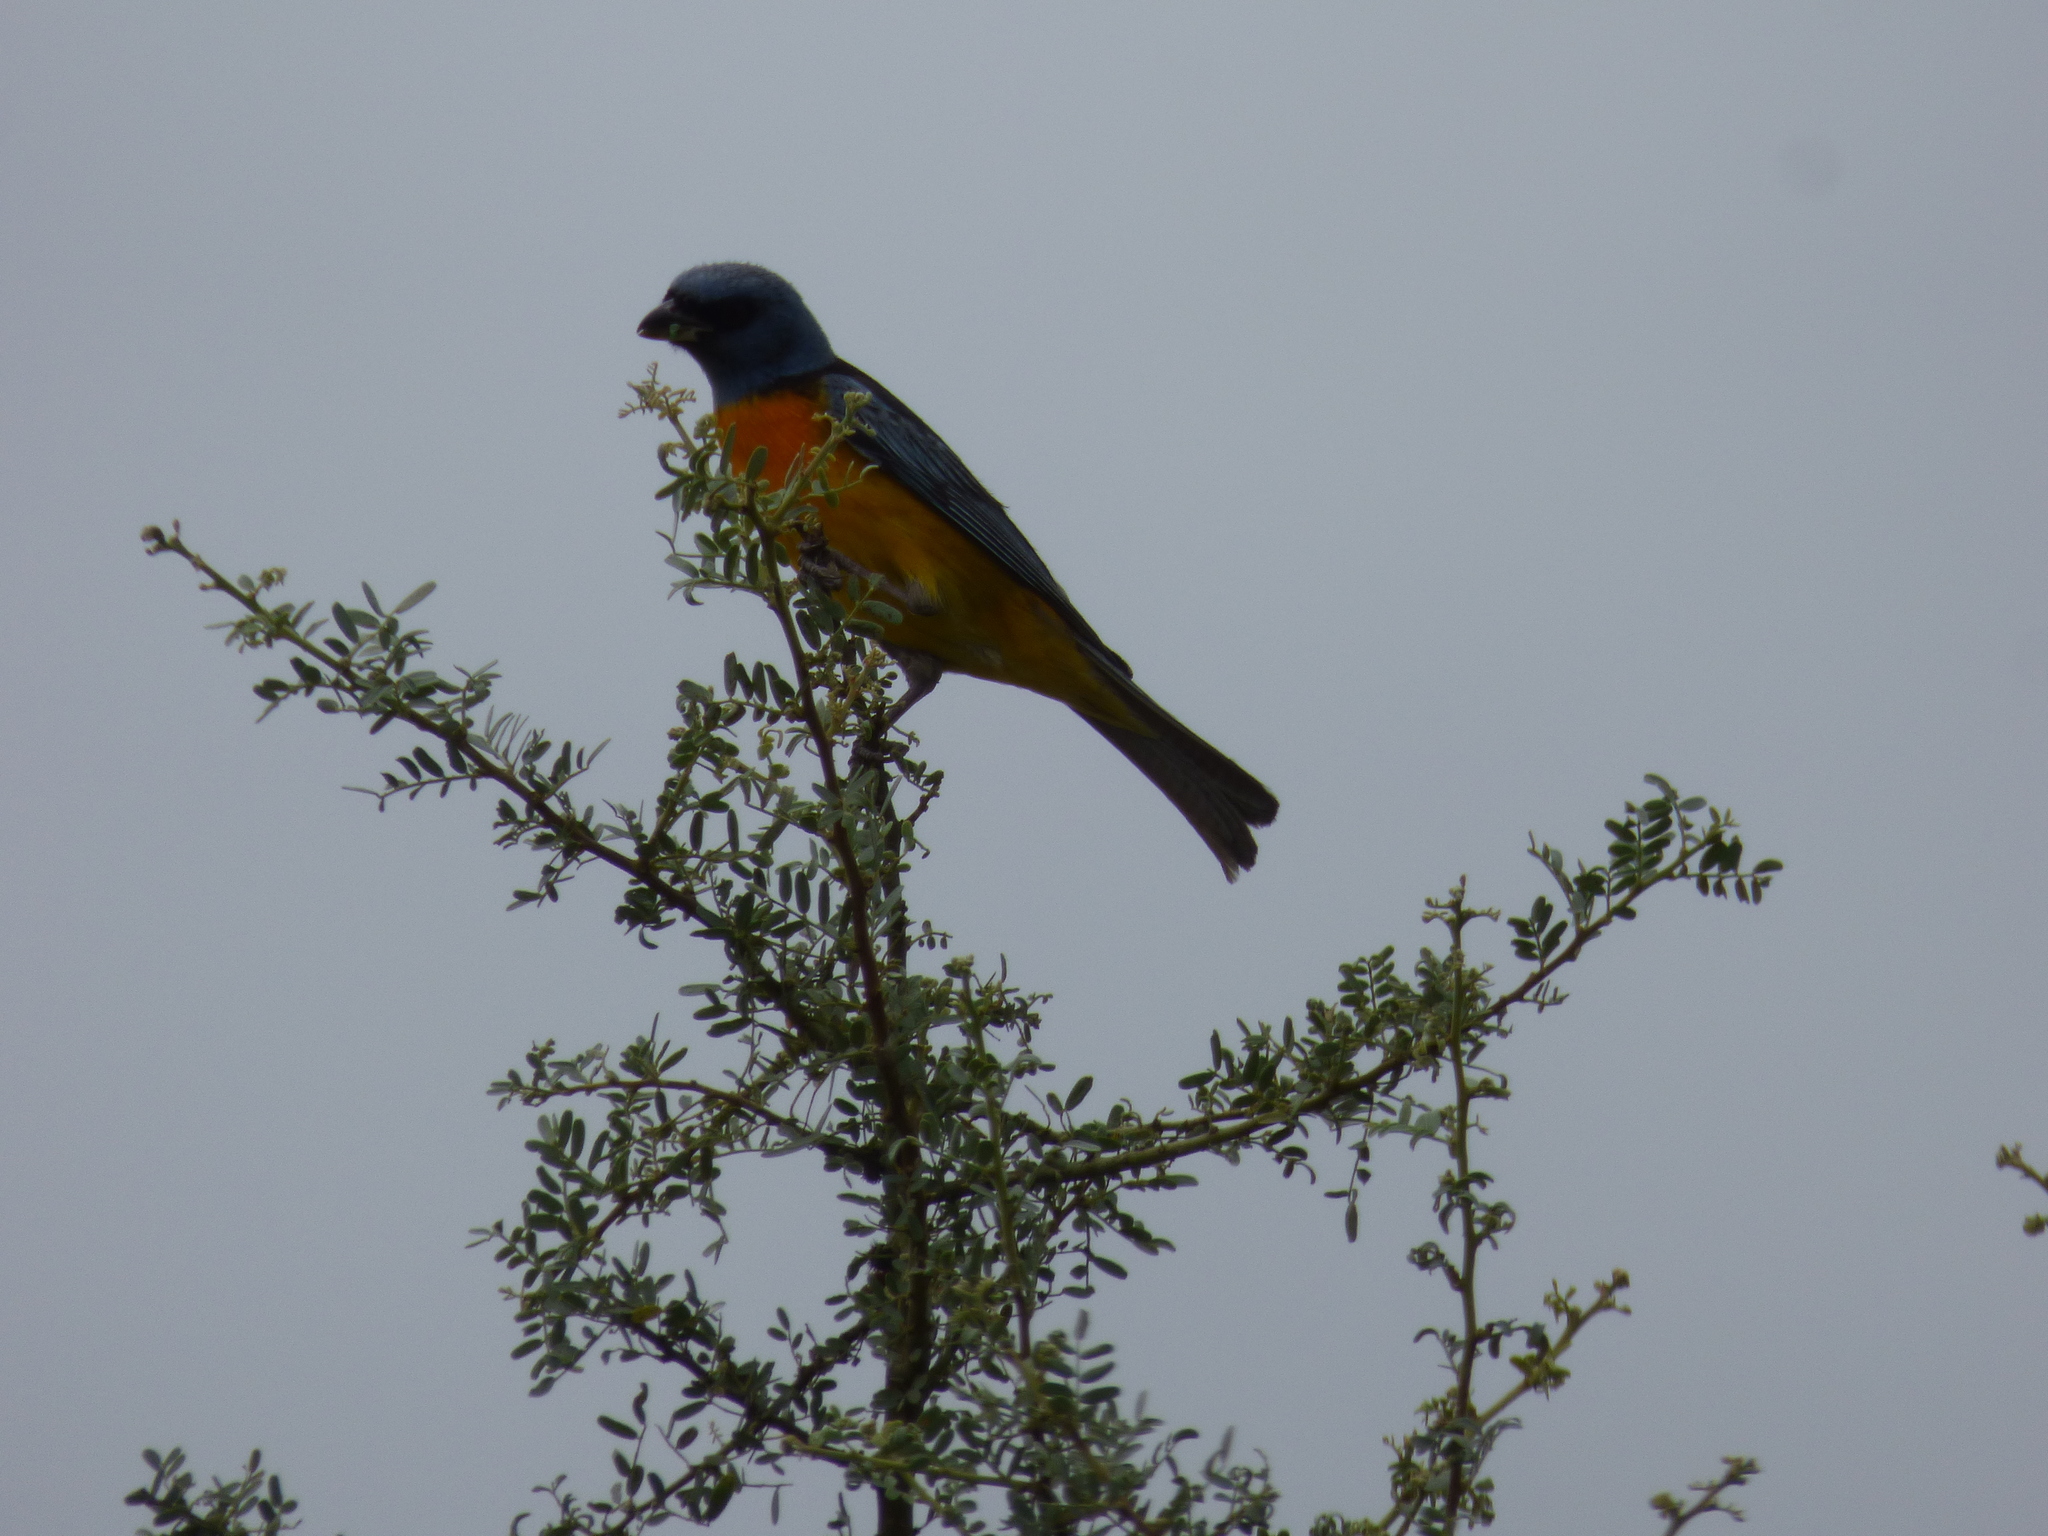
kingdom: Animalia
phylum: Chordata
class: Aves
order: Passeriformes
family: Thraupidae
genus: Rauenia
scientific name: Rauenia bonariensis
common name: Blue-and-yellow tanager
